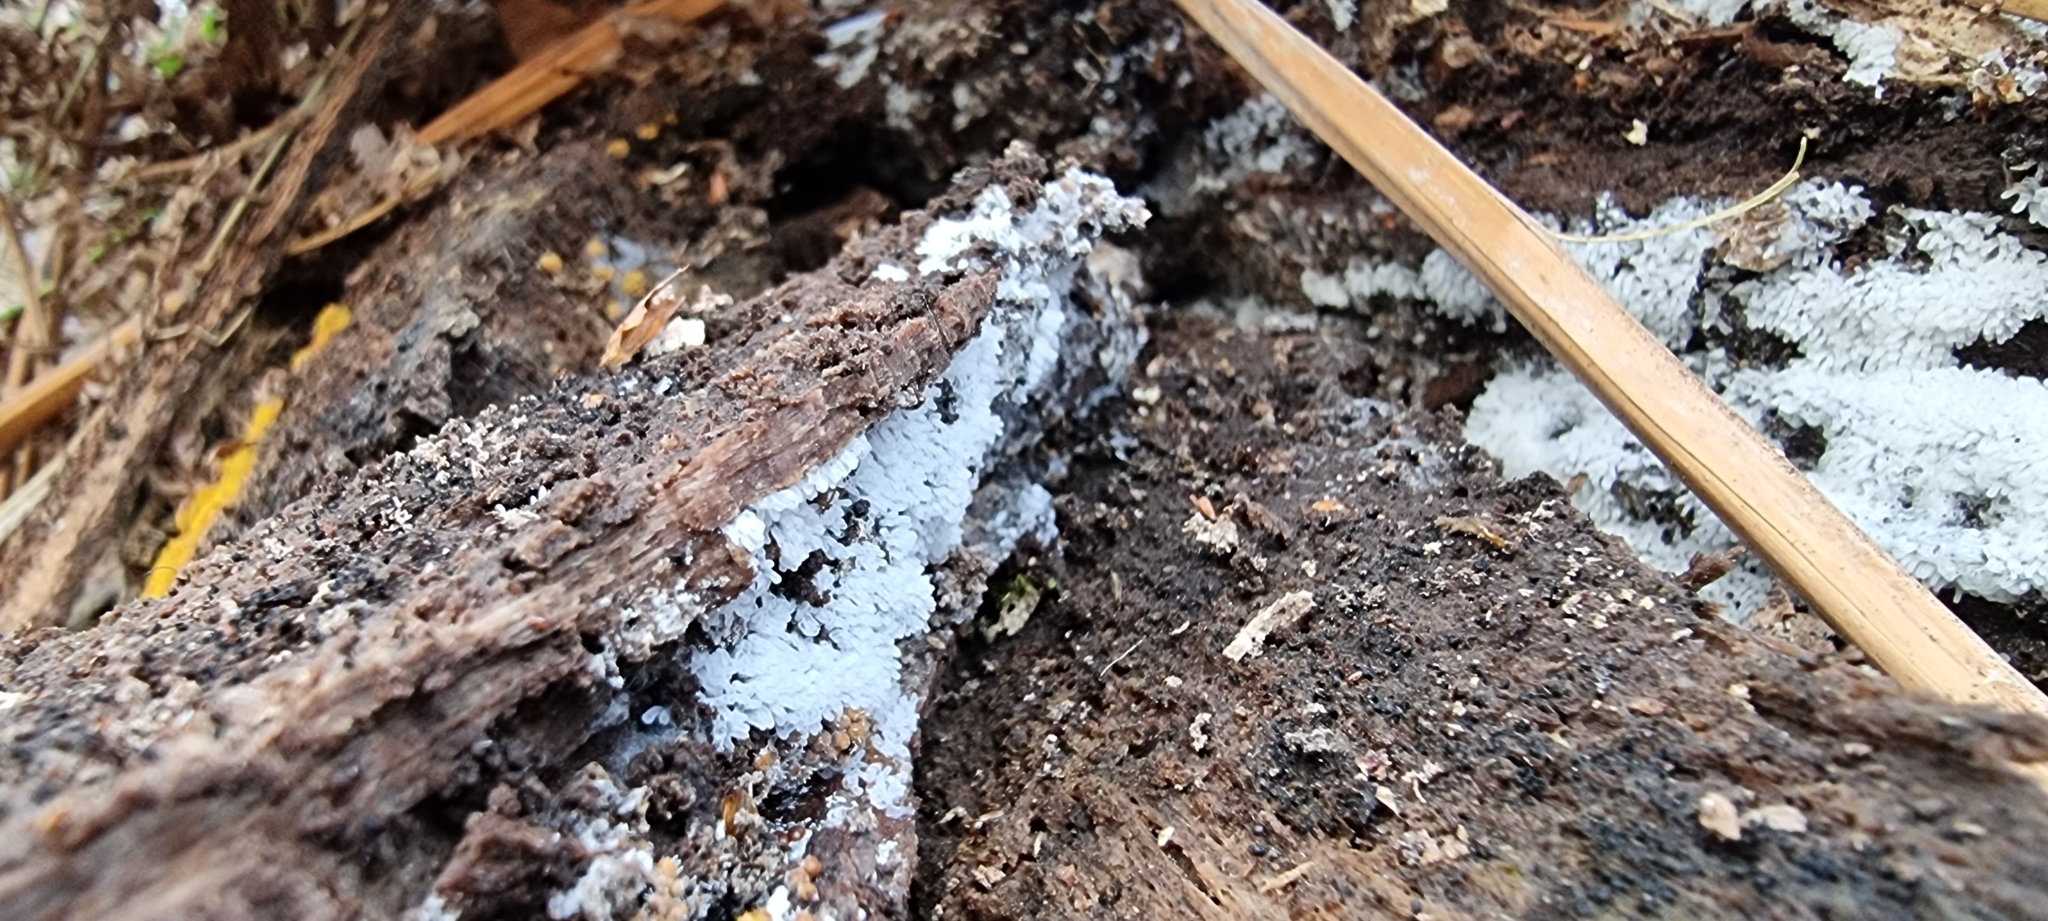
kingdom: Protozoa
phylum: Mycetozoa
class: Protosteliomycetes
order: Ceratiomyxales
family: Ceratiomyxaceae
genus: Ceratiomyxa
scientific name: Ceratiomyxa fruticulosa
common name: Honeycomb coral slime mold
